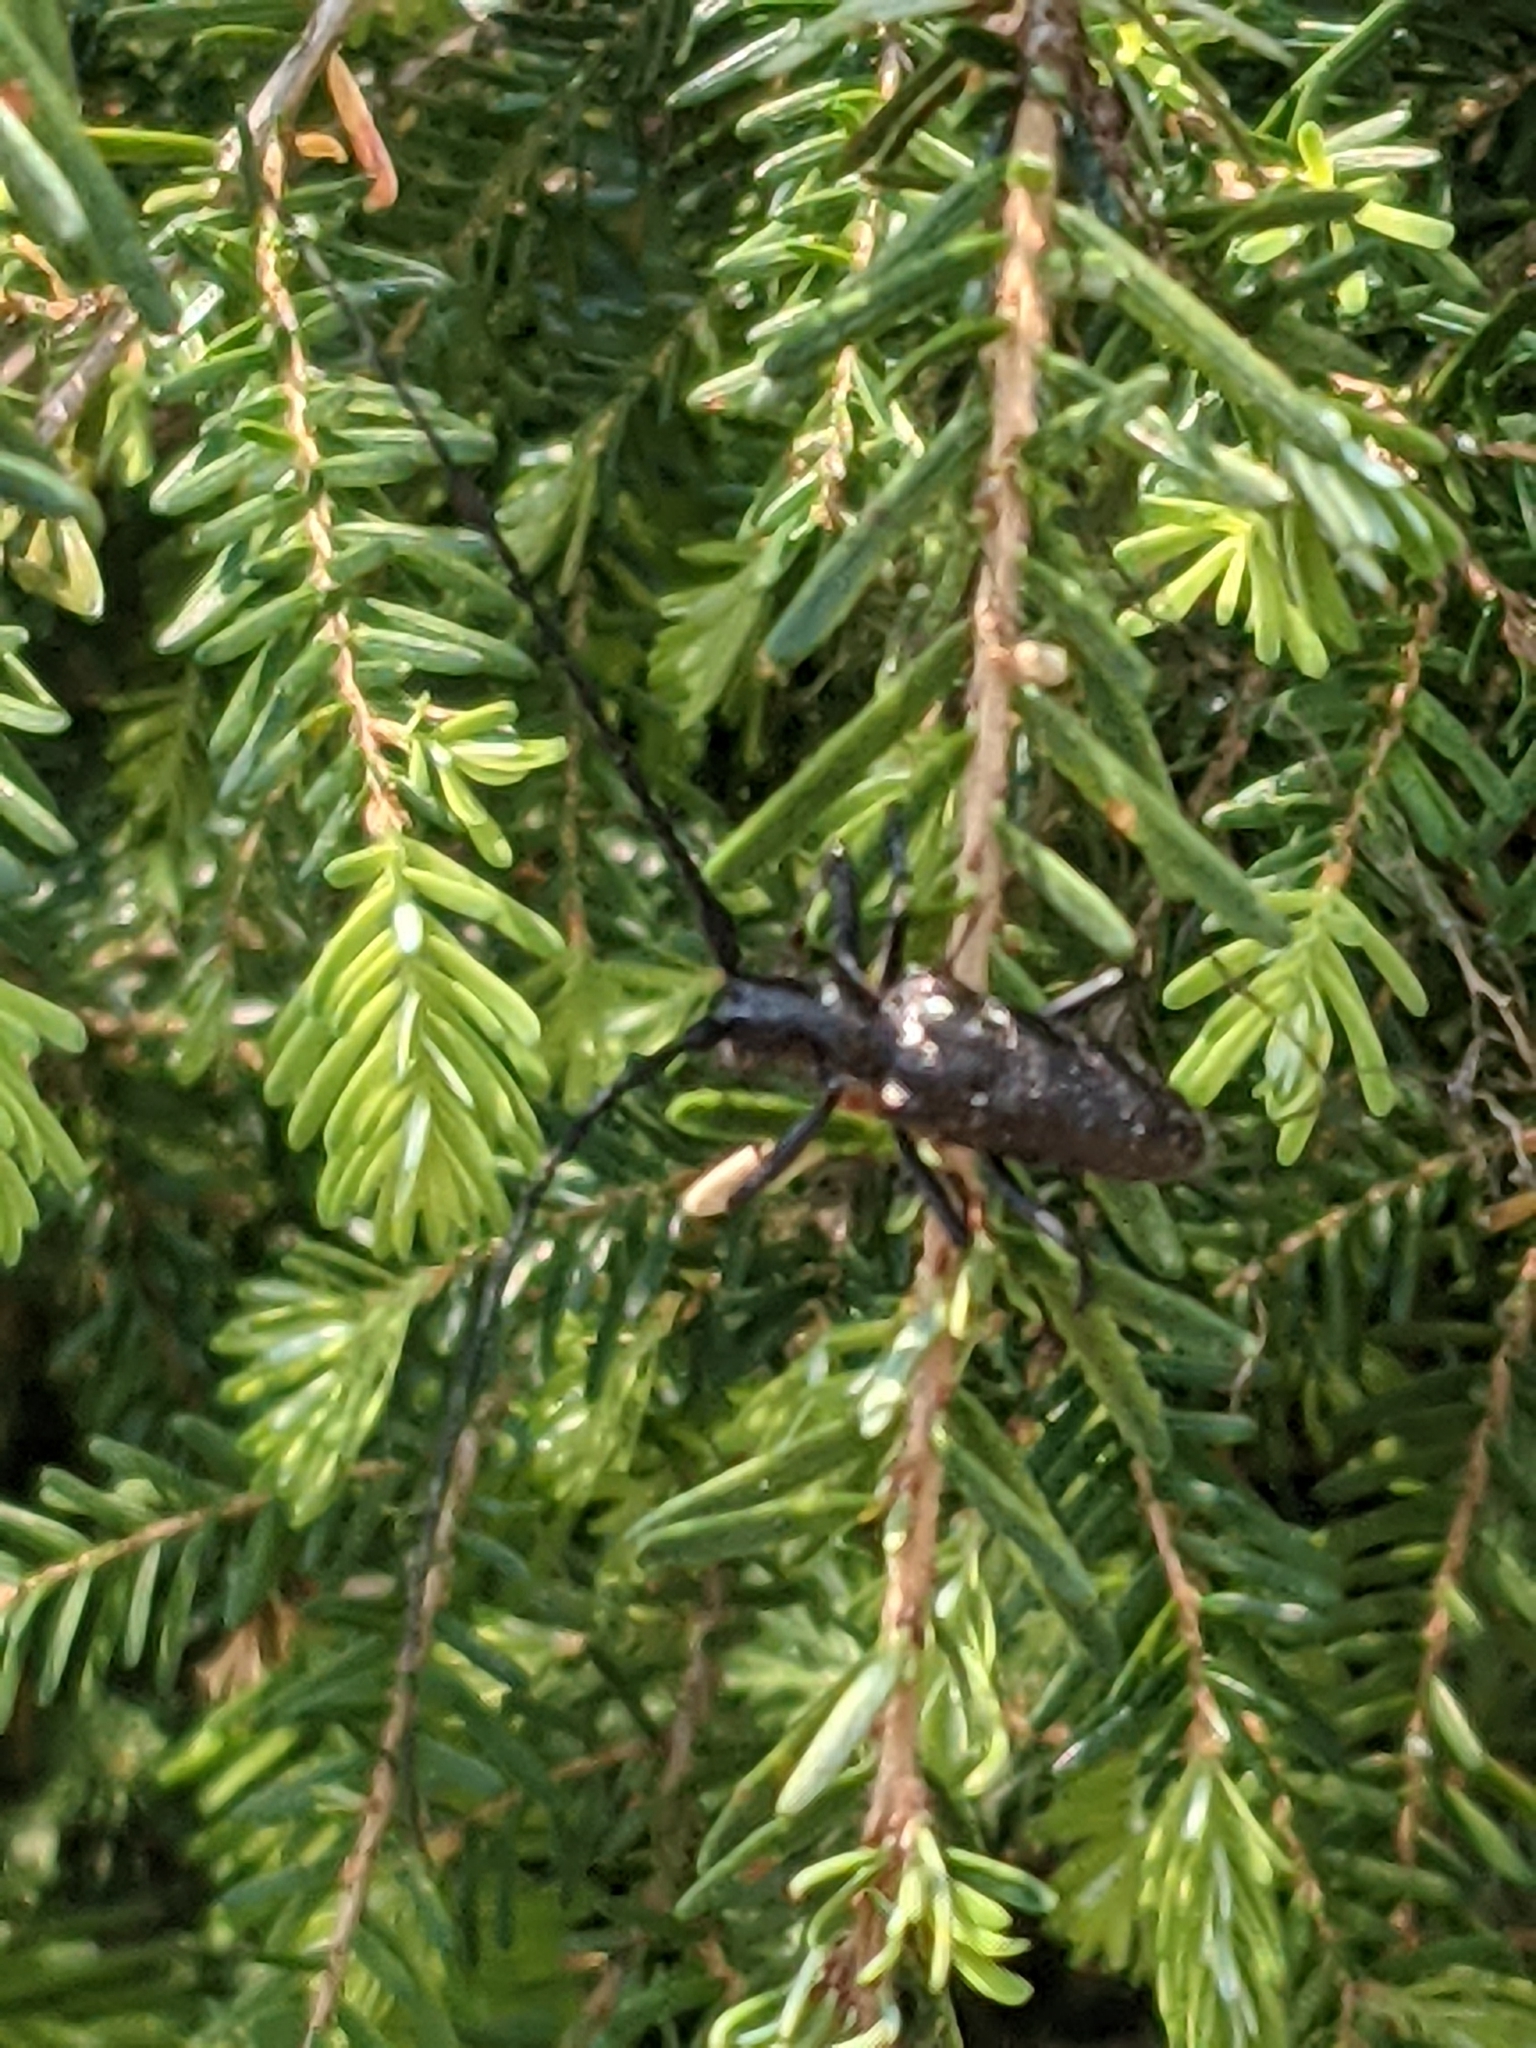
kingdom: Animalia
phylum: Arthropoda
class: Insecta
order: Coleoptera
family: Cerambycidae
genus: Monochamus
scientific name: Monochamus scutellatus
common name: White-spotted sawyer beetle
